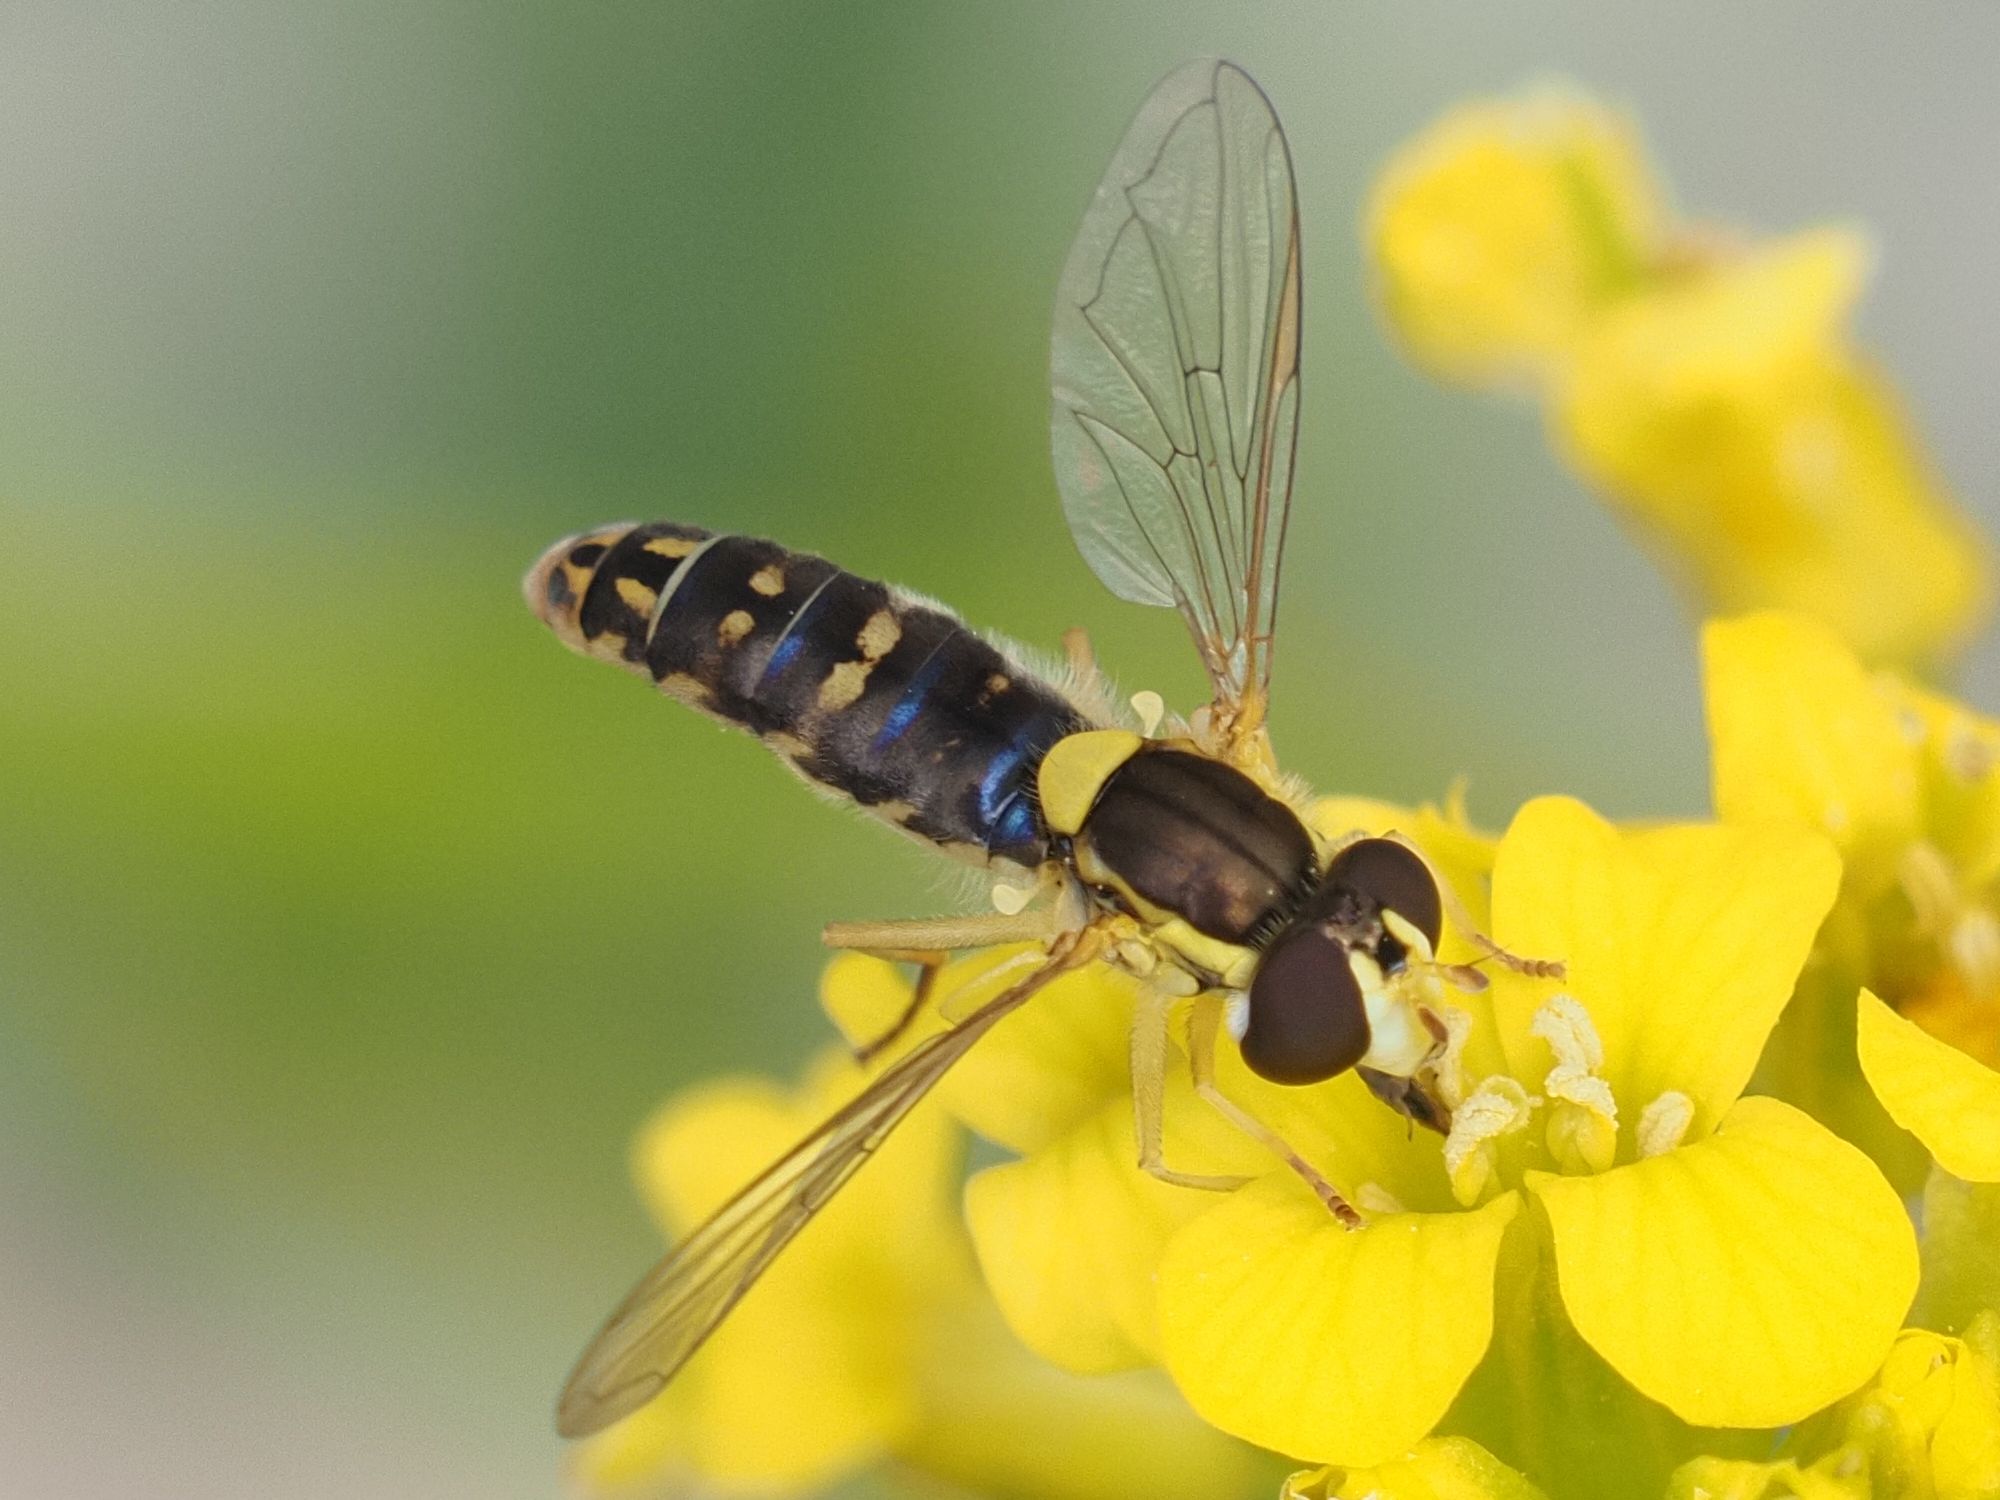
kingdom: Animalia
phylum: Arthropoda
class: Insecta
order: Diptera
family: Syrphidae
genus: Sphaerophoria
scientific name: Sphaerophoria
